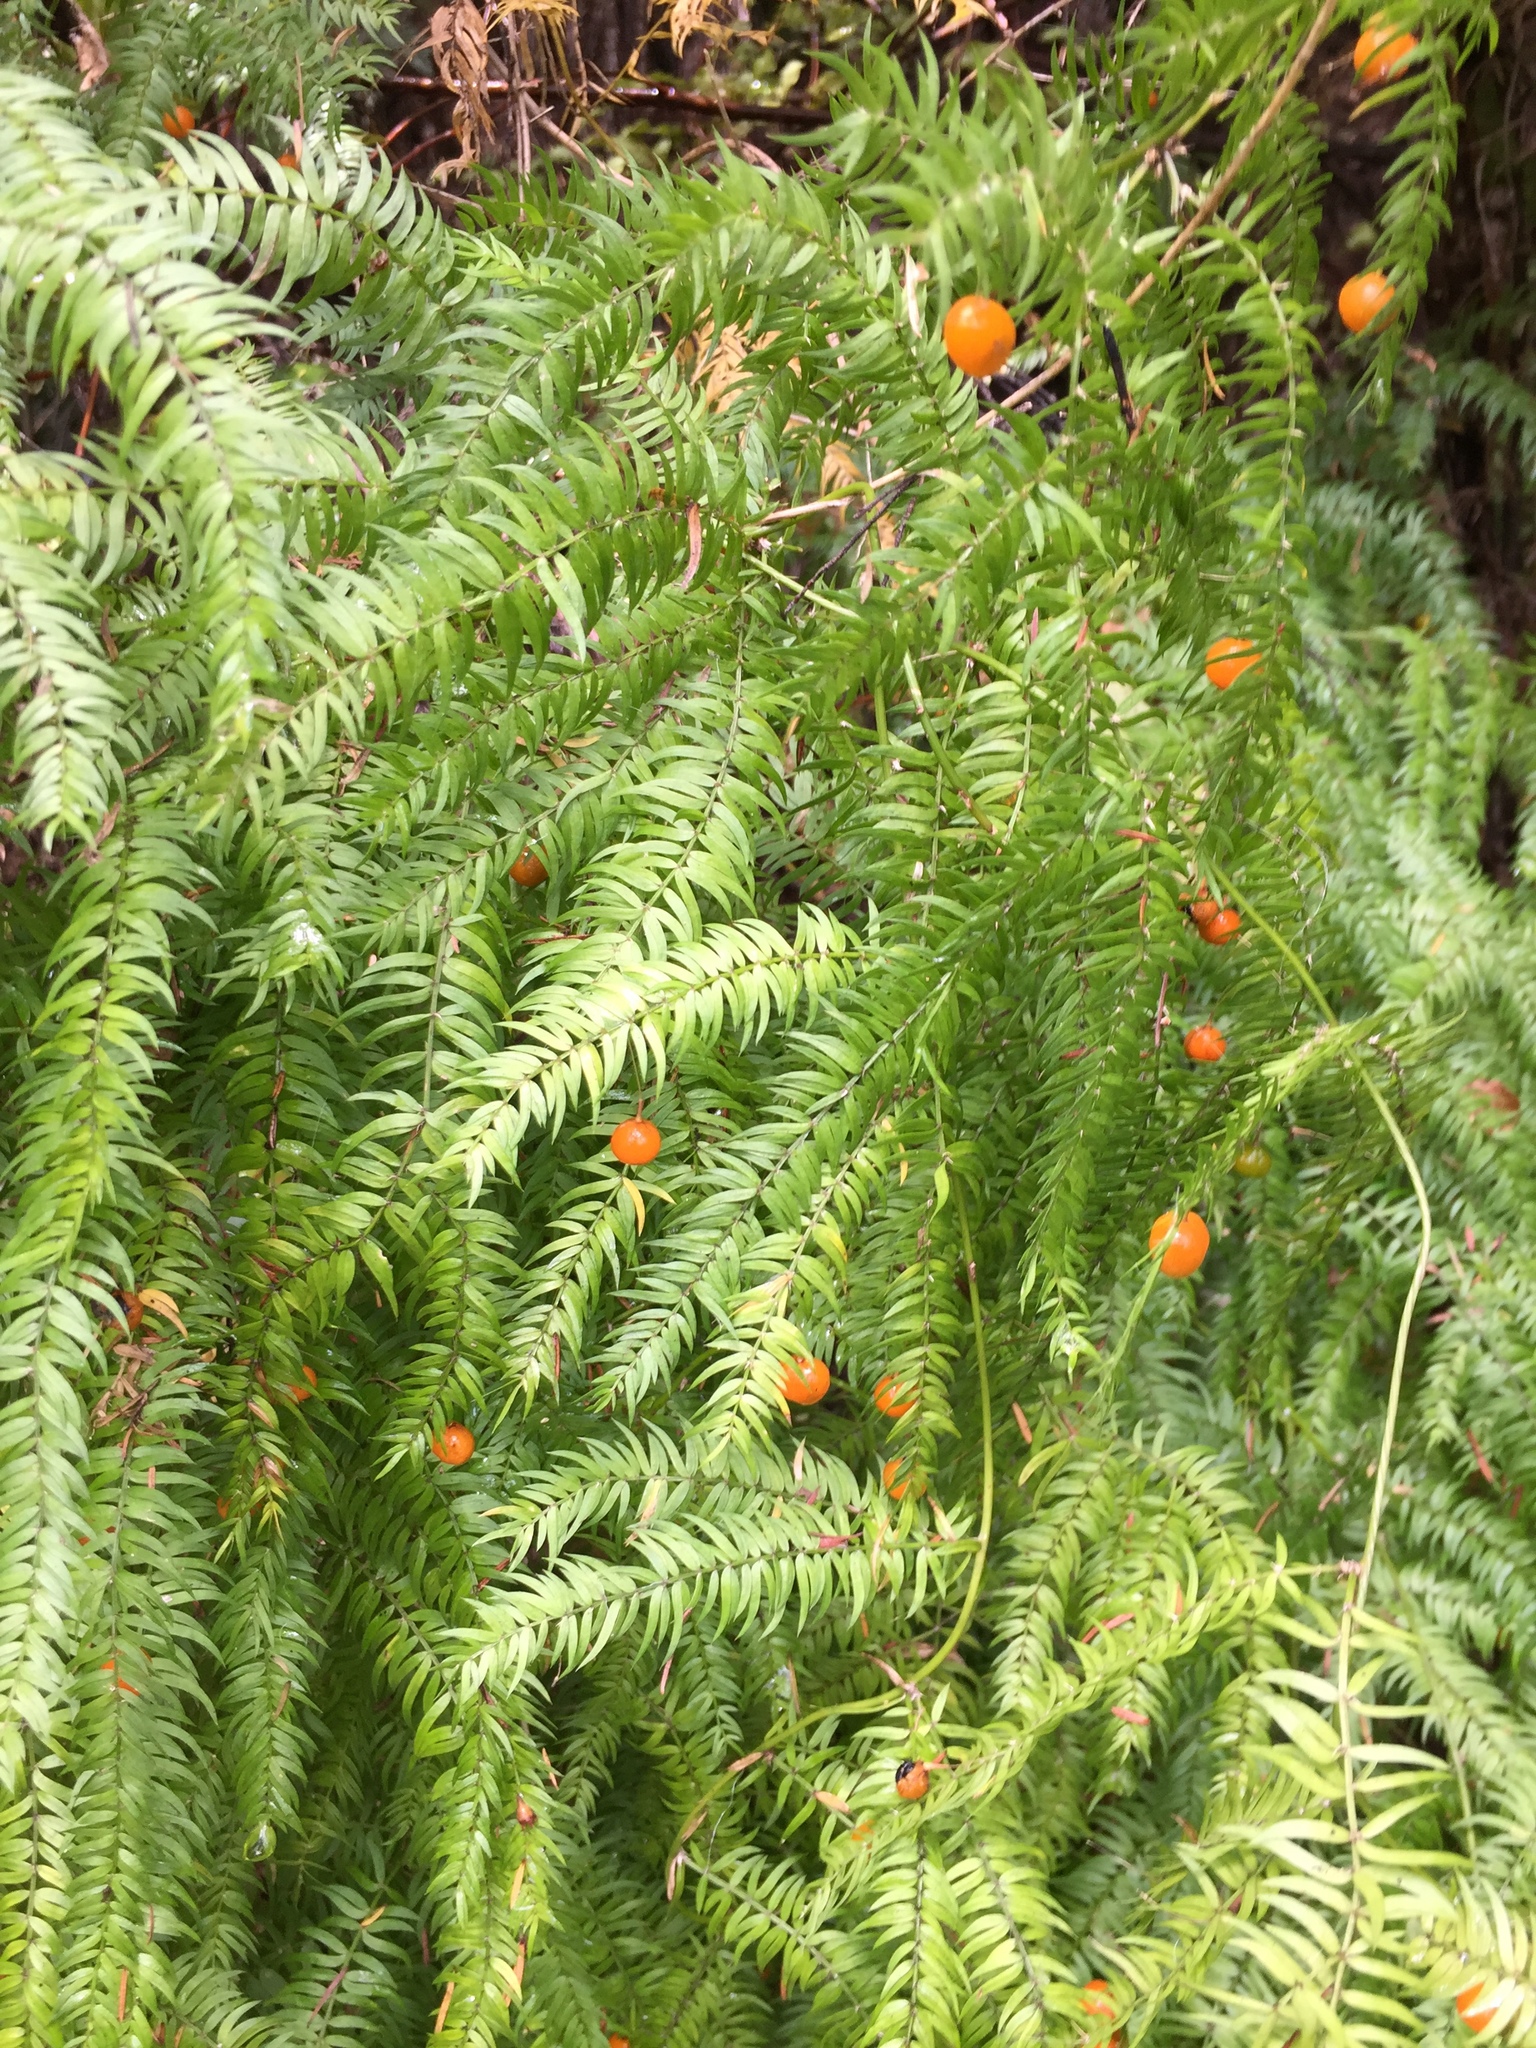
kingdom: Plantae
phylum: Tracheophyta
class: Liliopsida
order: Asparagales
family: Asparagaceae
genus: Asparagus
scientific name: Asparagus scandens
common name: Asparagus-fern
